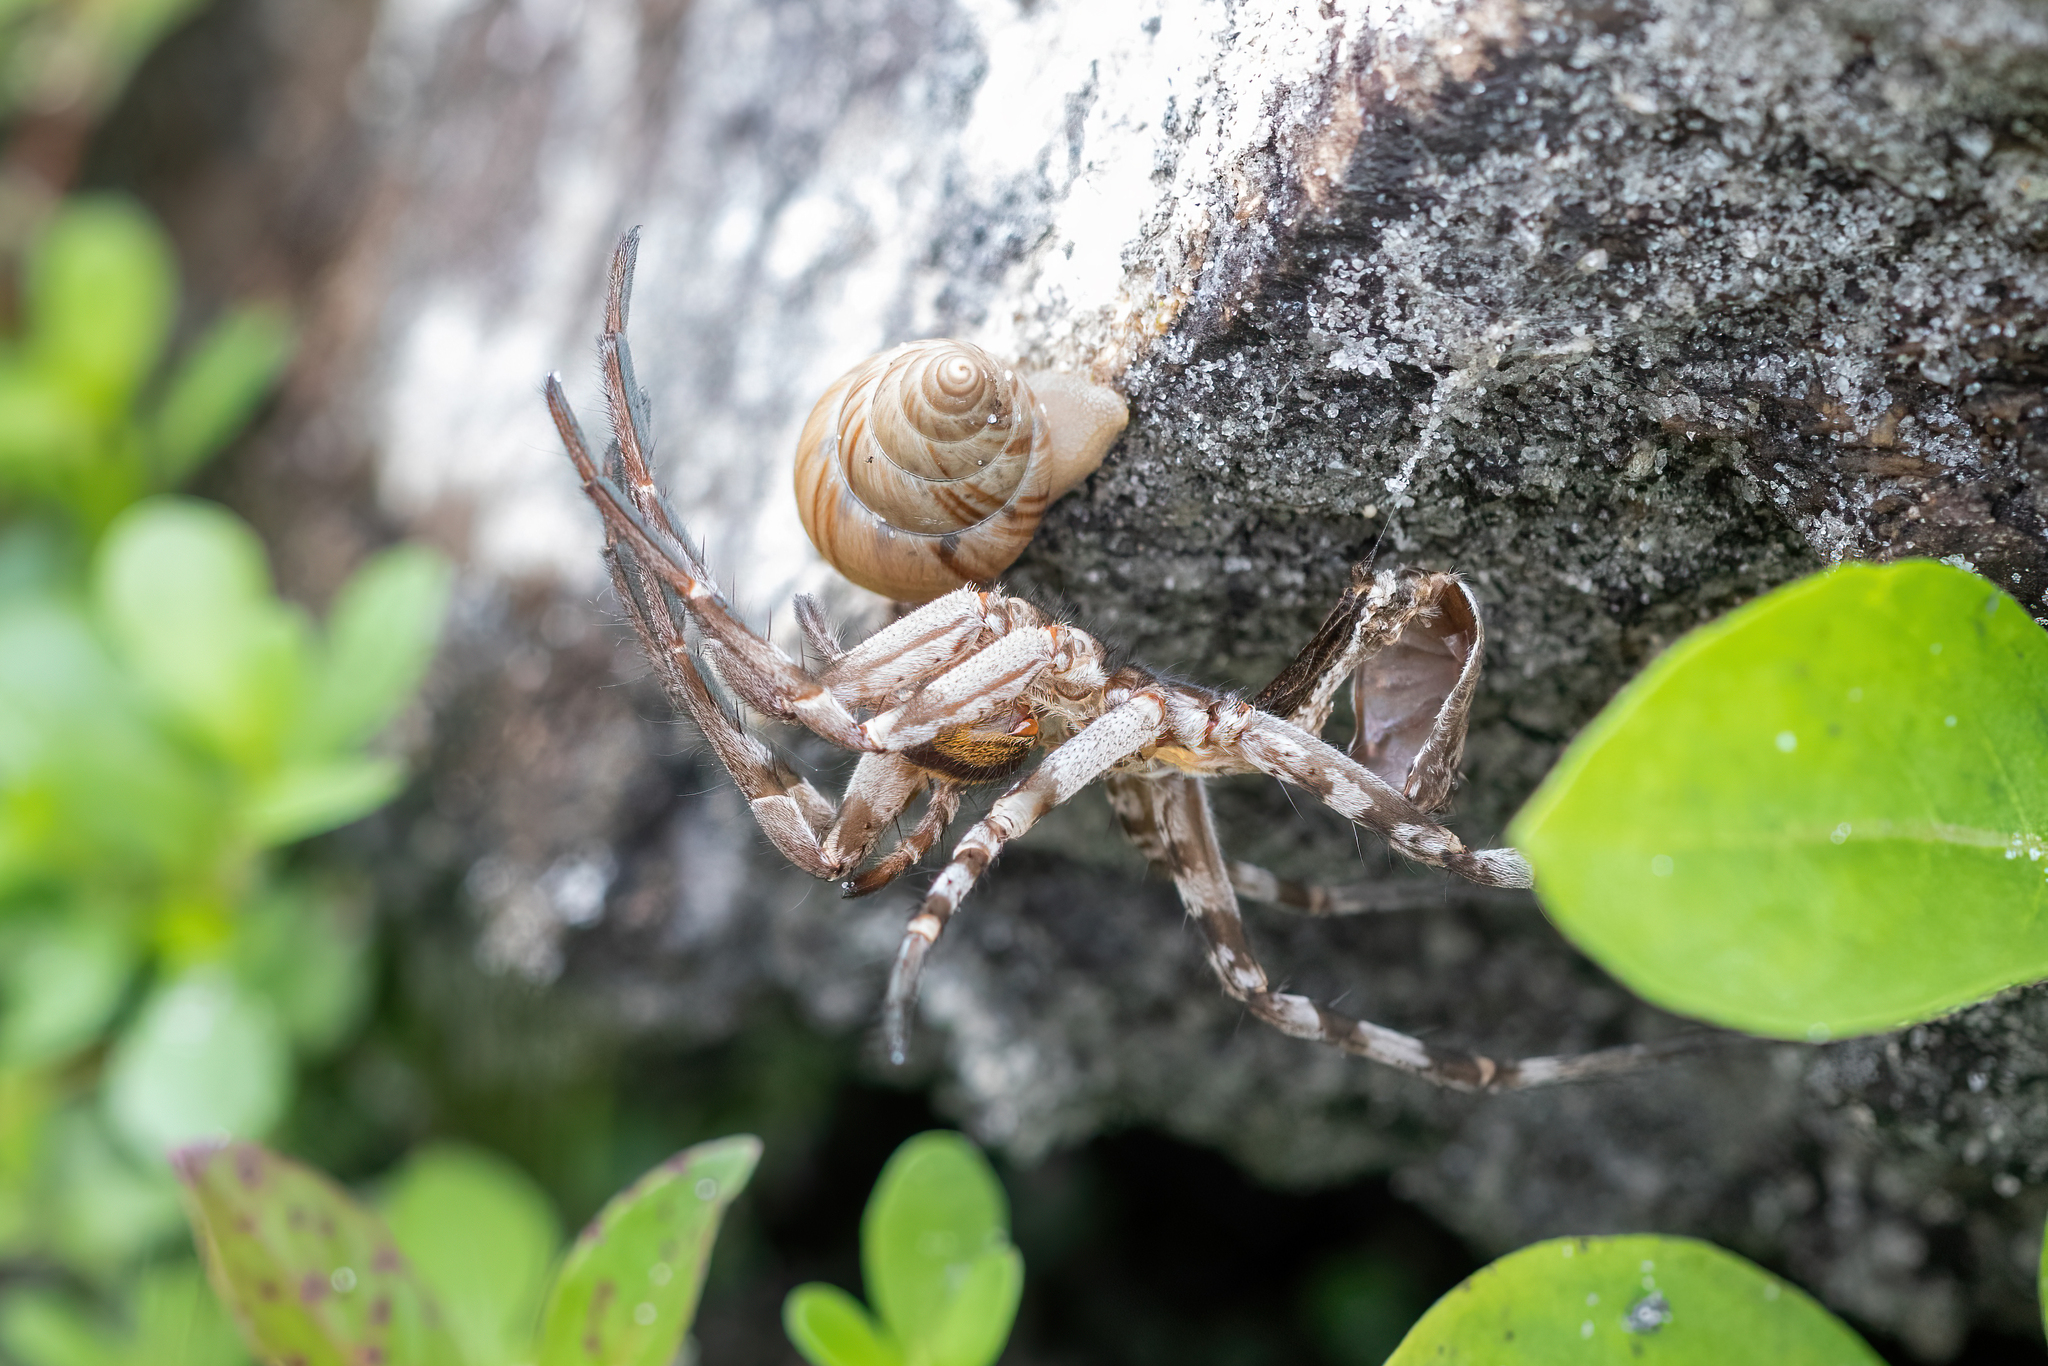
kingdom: Animalia
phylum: Mollusca
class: Gastropoda
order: Stylommatophora
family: Bulimulidae
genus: Bulimulus
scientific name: Bulimulus bonariensis
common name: Snail
